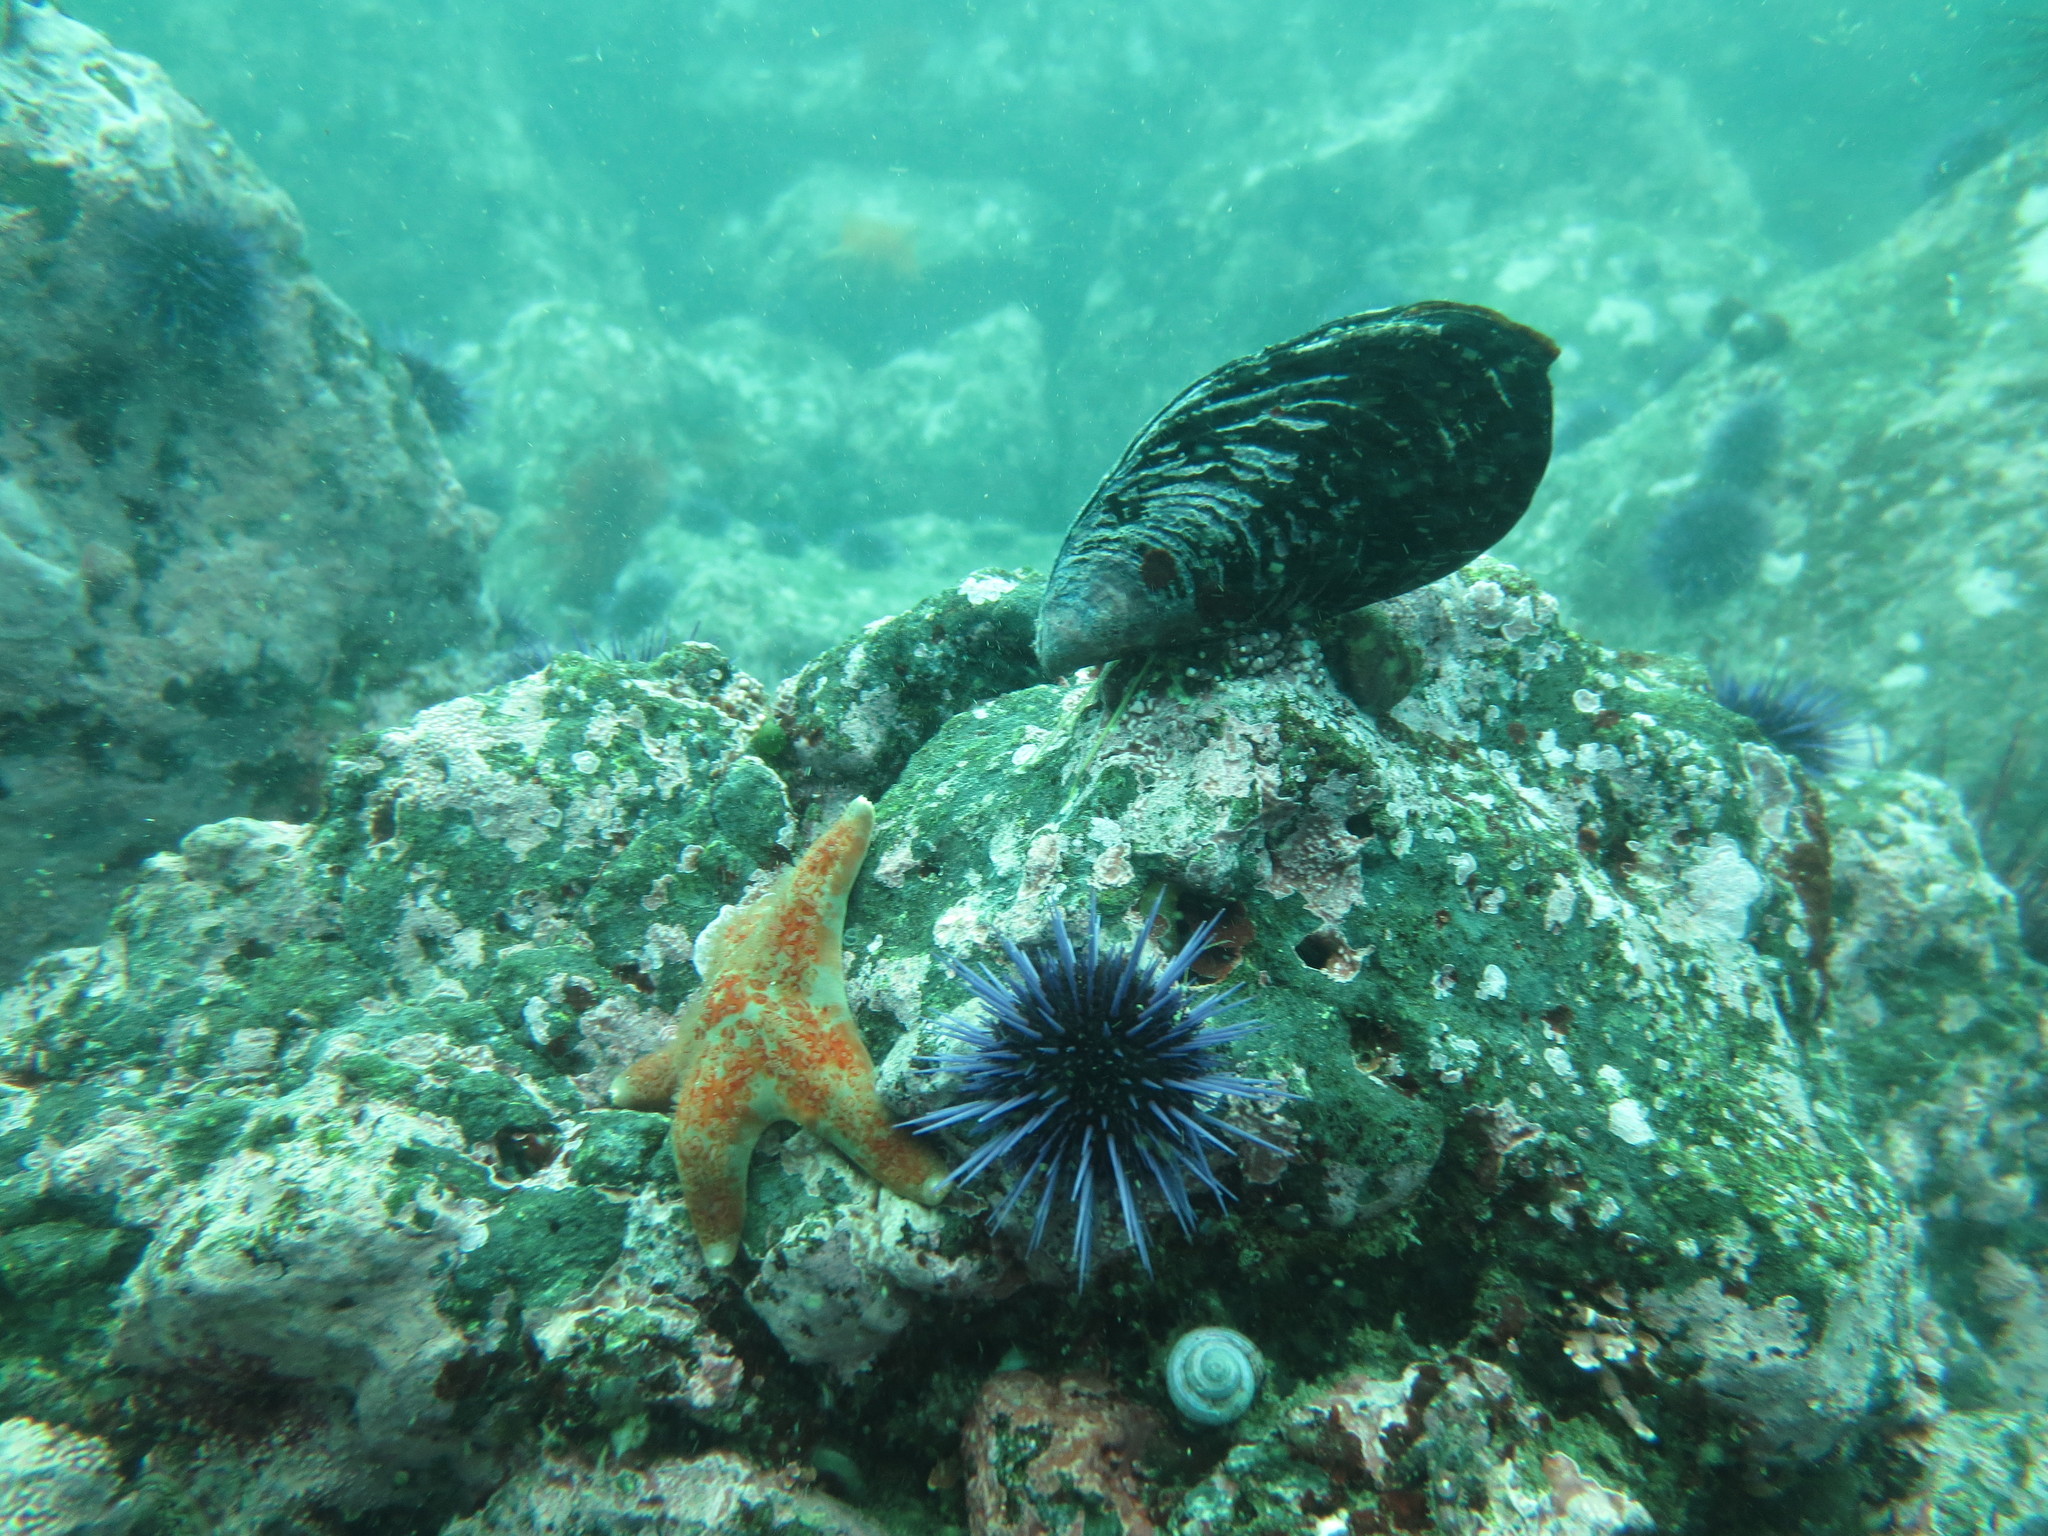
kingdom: Animalia
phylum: Echinodermata
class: Asteroidea
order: Valvatida
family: Asteropseidae
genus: Dermasterias
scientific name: Dermasterias imbricata
